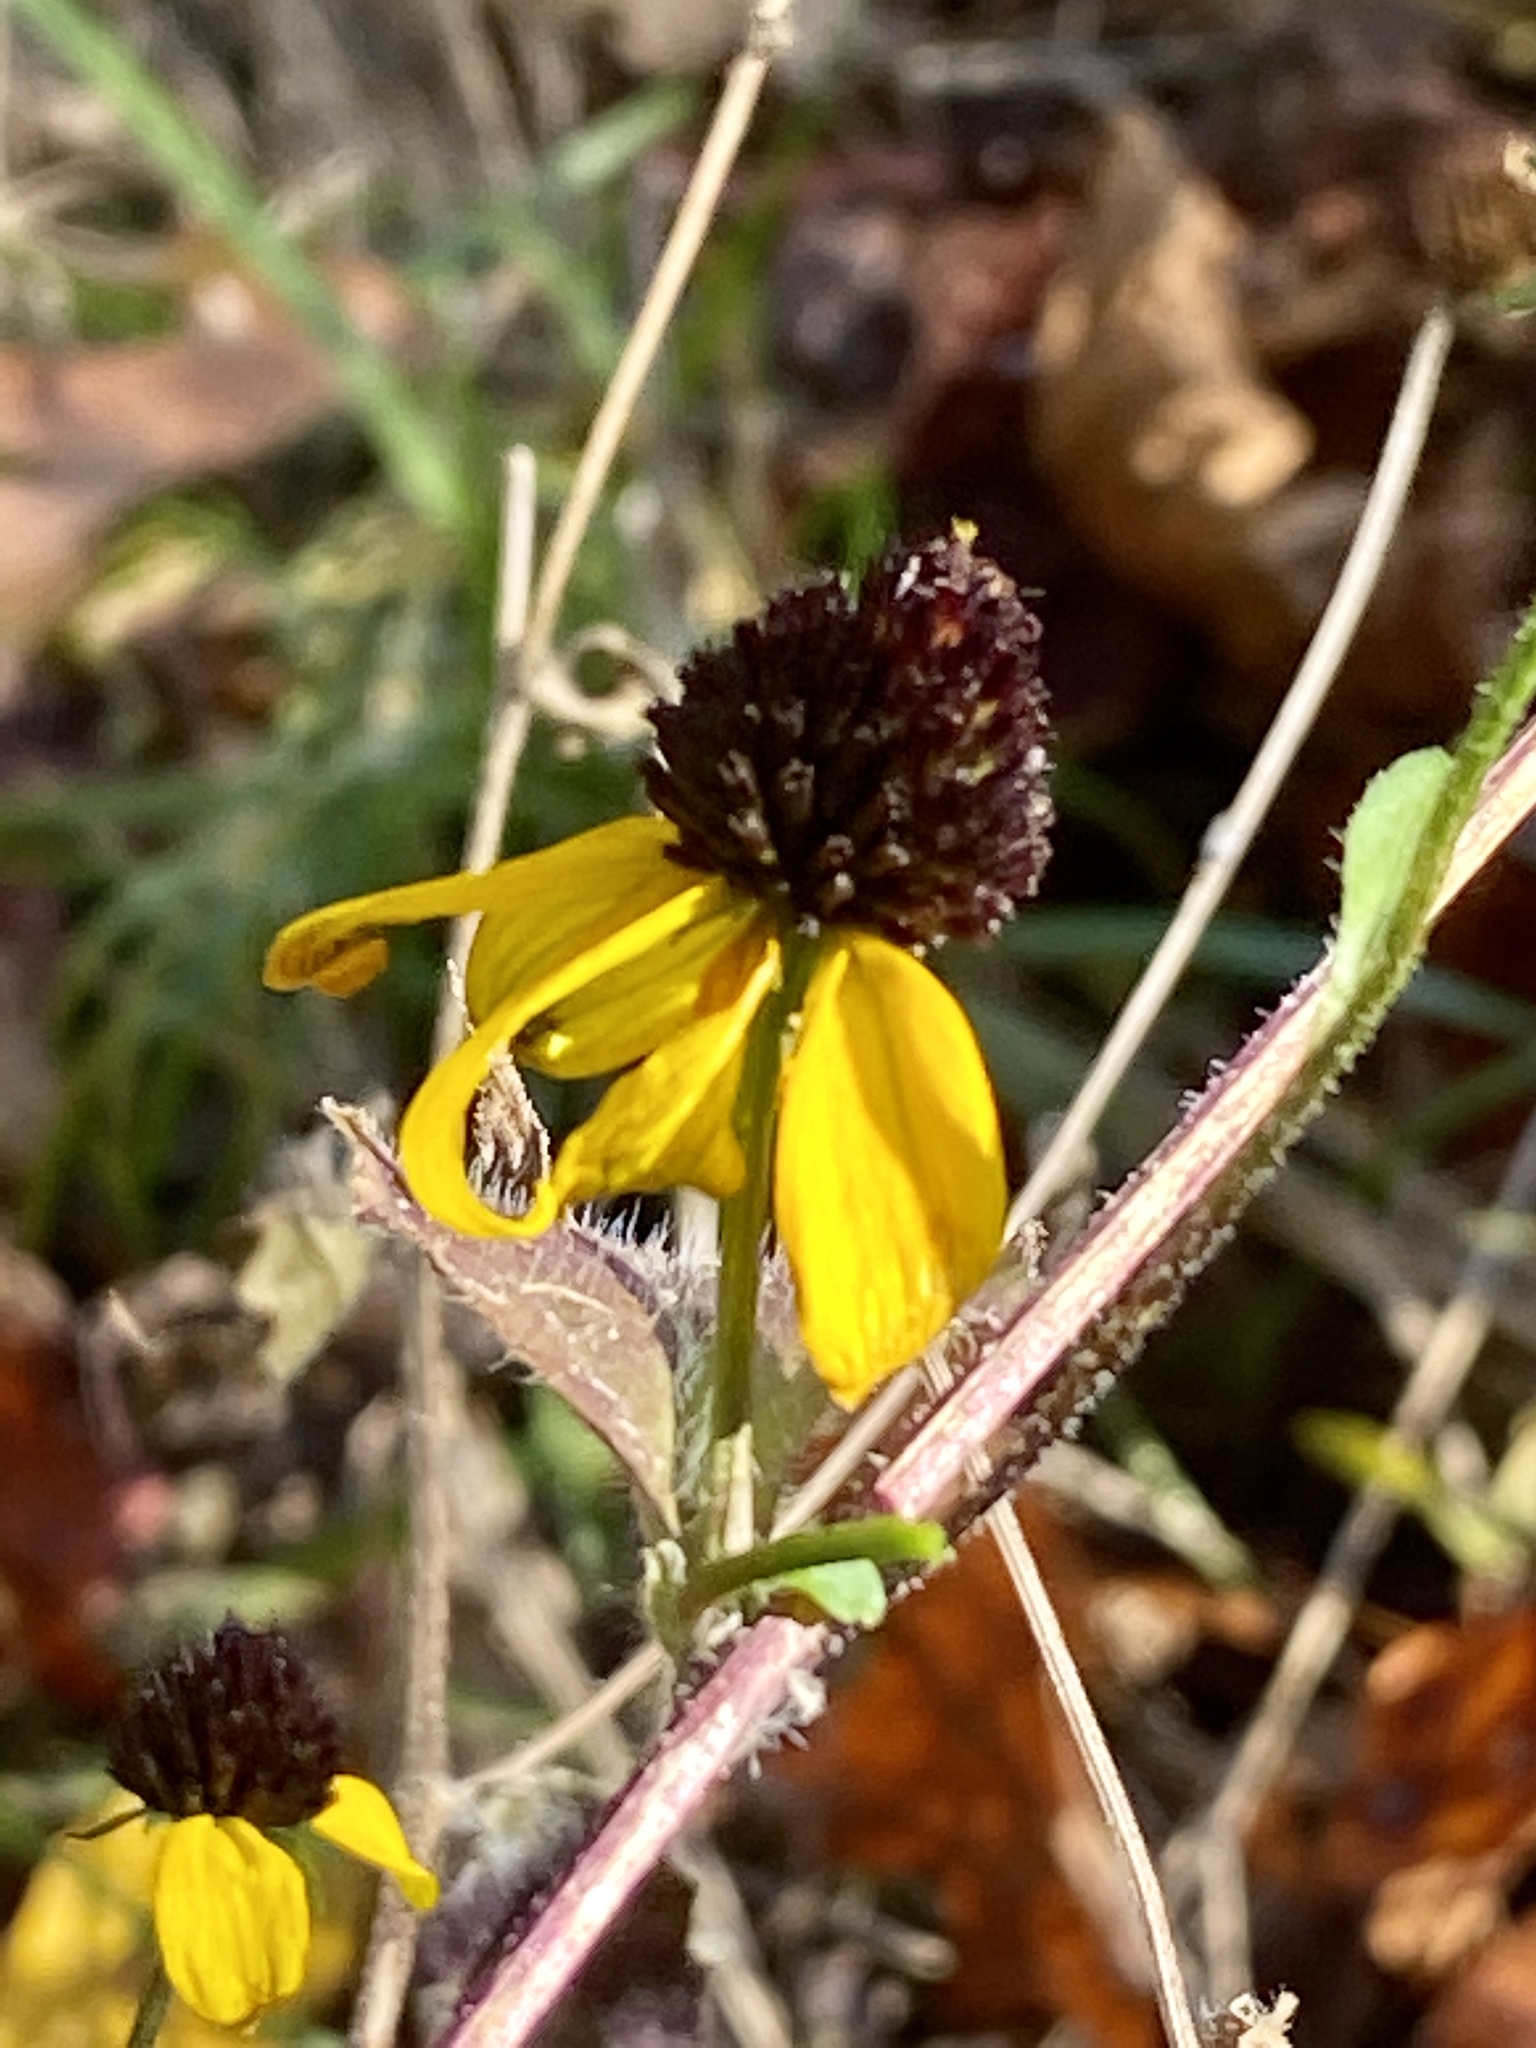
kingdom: Plantae
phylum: Tracheophyta
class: Magnoliopsida
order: Asterales
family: Asteraceae
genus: Rudbeckia
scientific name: Rudbeckia triloba
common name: Thin-leaved coneflower
